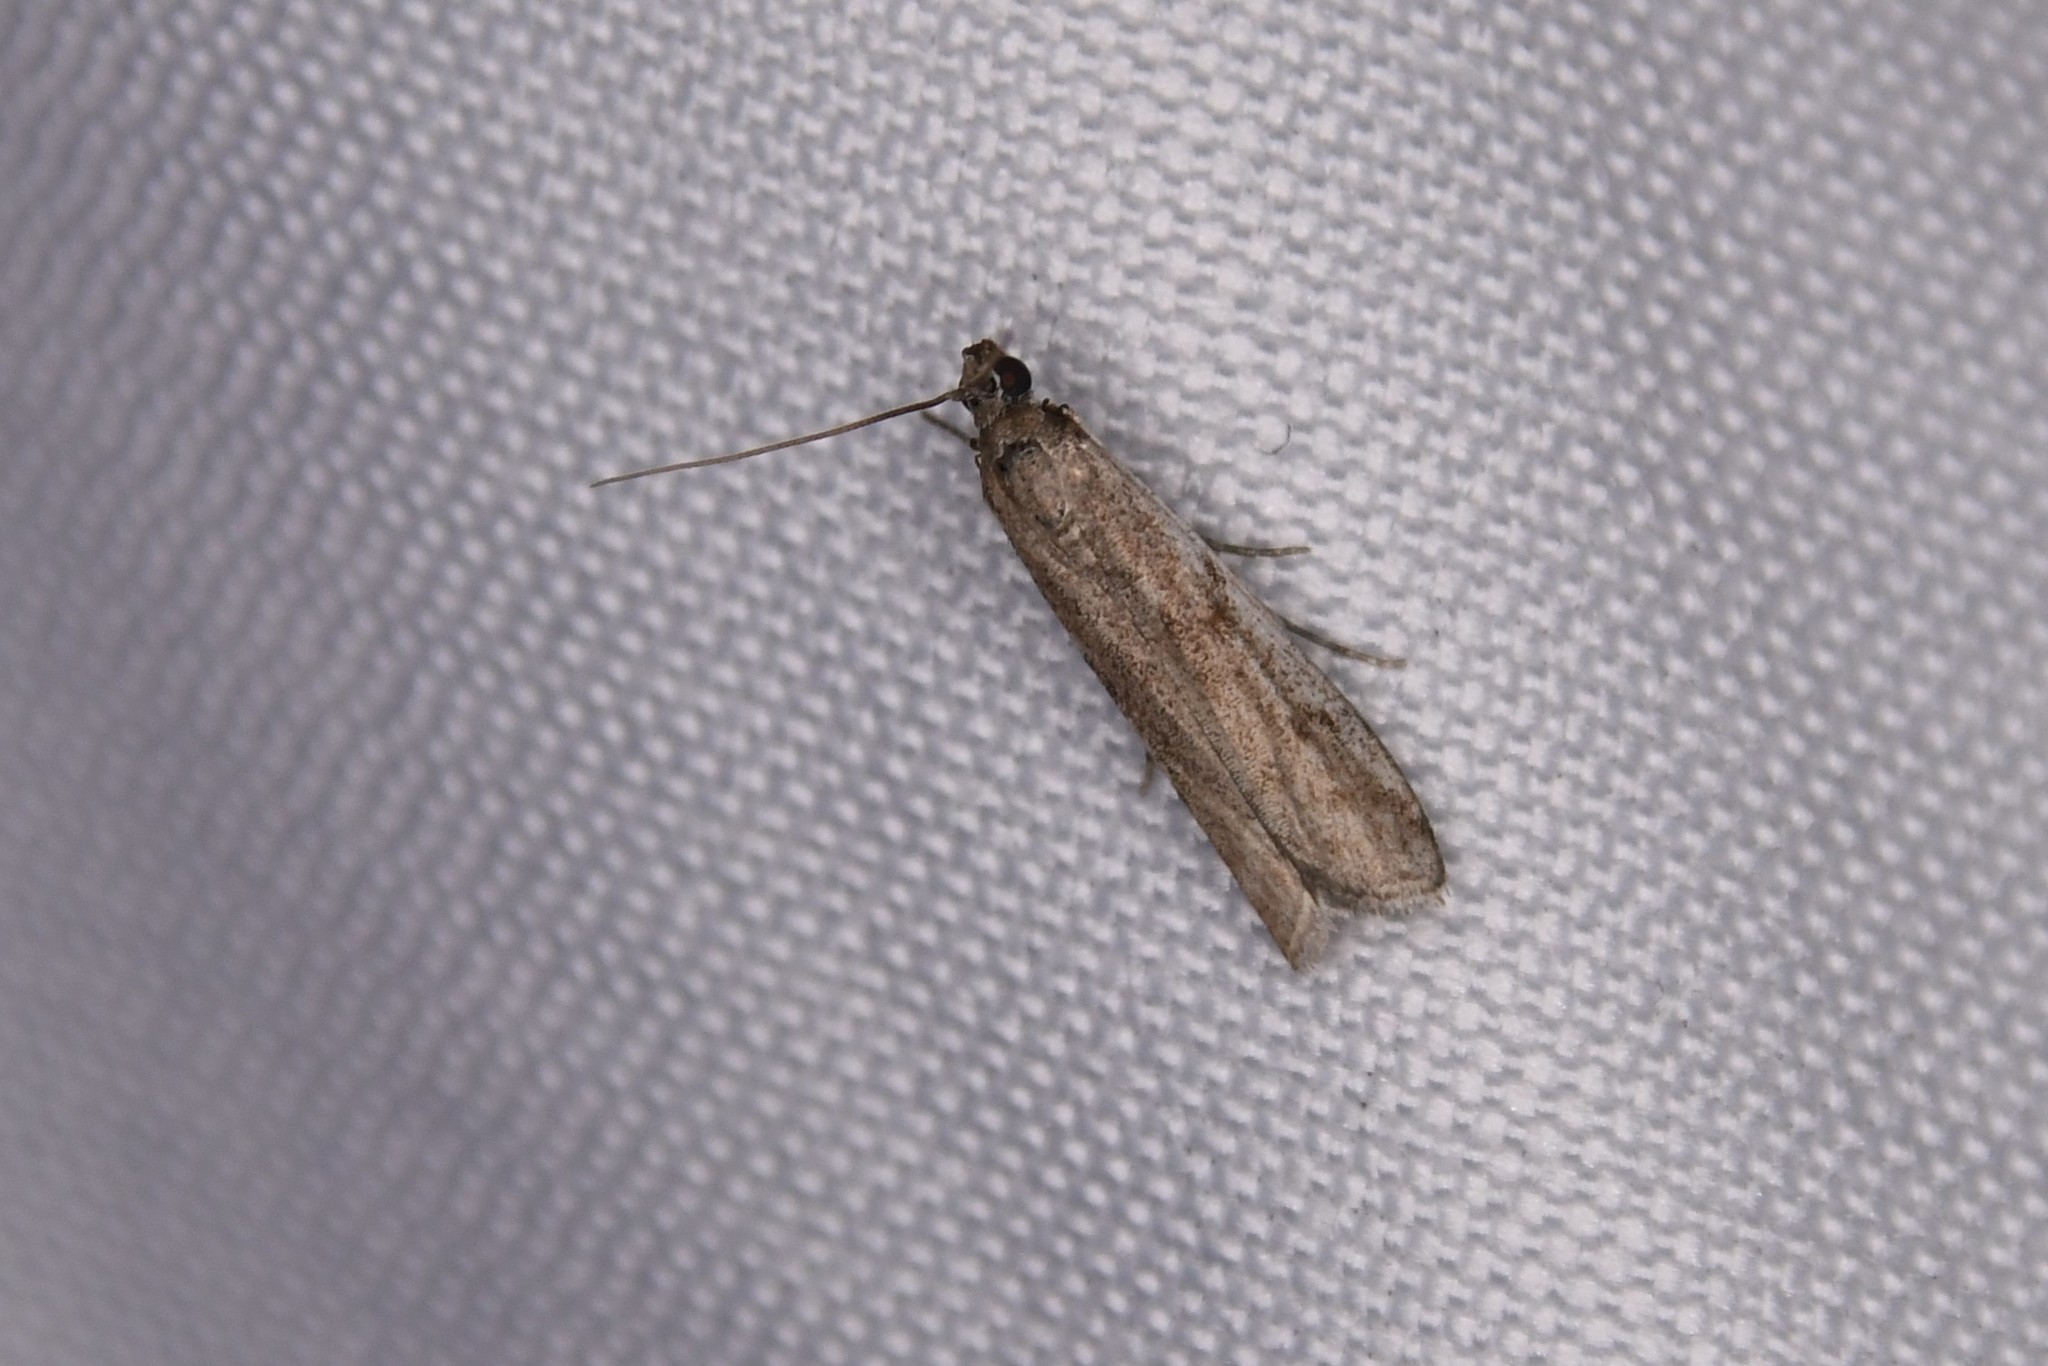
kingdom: Animalia
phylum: Arthropoda
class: Insecta
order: Lepidoptera
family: Pyralidae
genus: Phycitodes
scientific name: Phycitodes mucidellus
